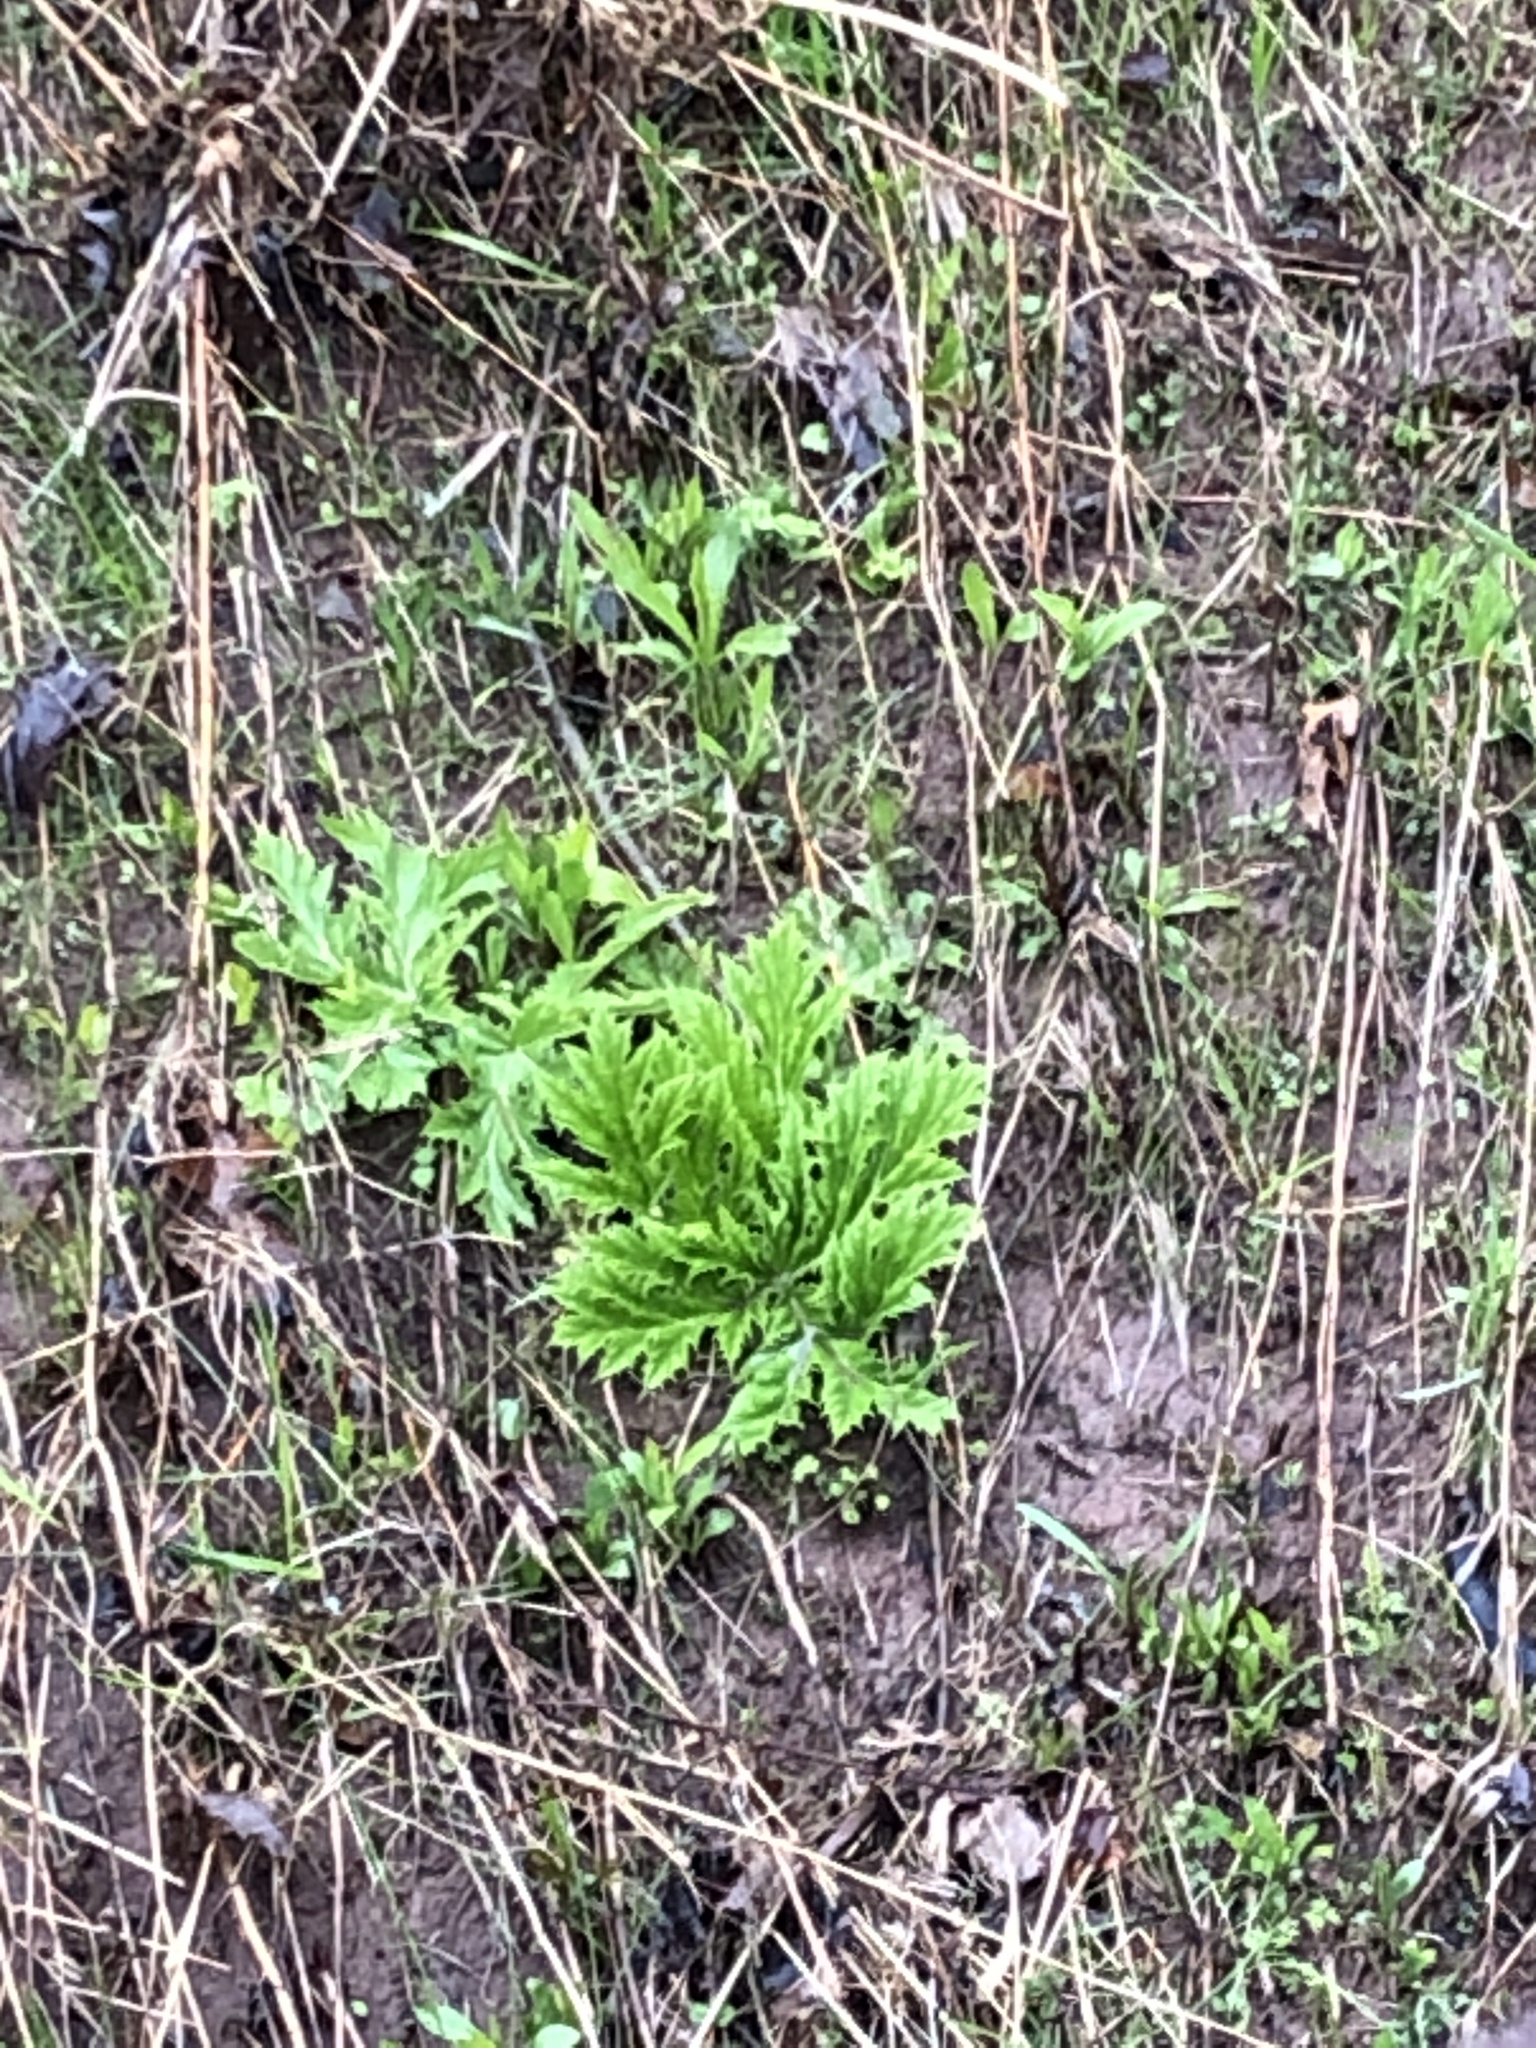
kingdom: Plantae
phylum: Tracheophyta
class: Magnoliopsida
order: Apiales
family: Apiaceae
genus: Heracleum
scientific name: Heracleum mantegazzianum
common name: Giant hogweed
